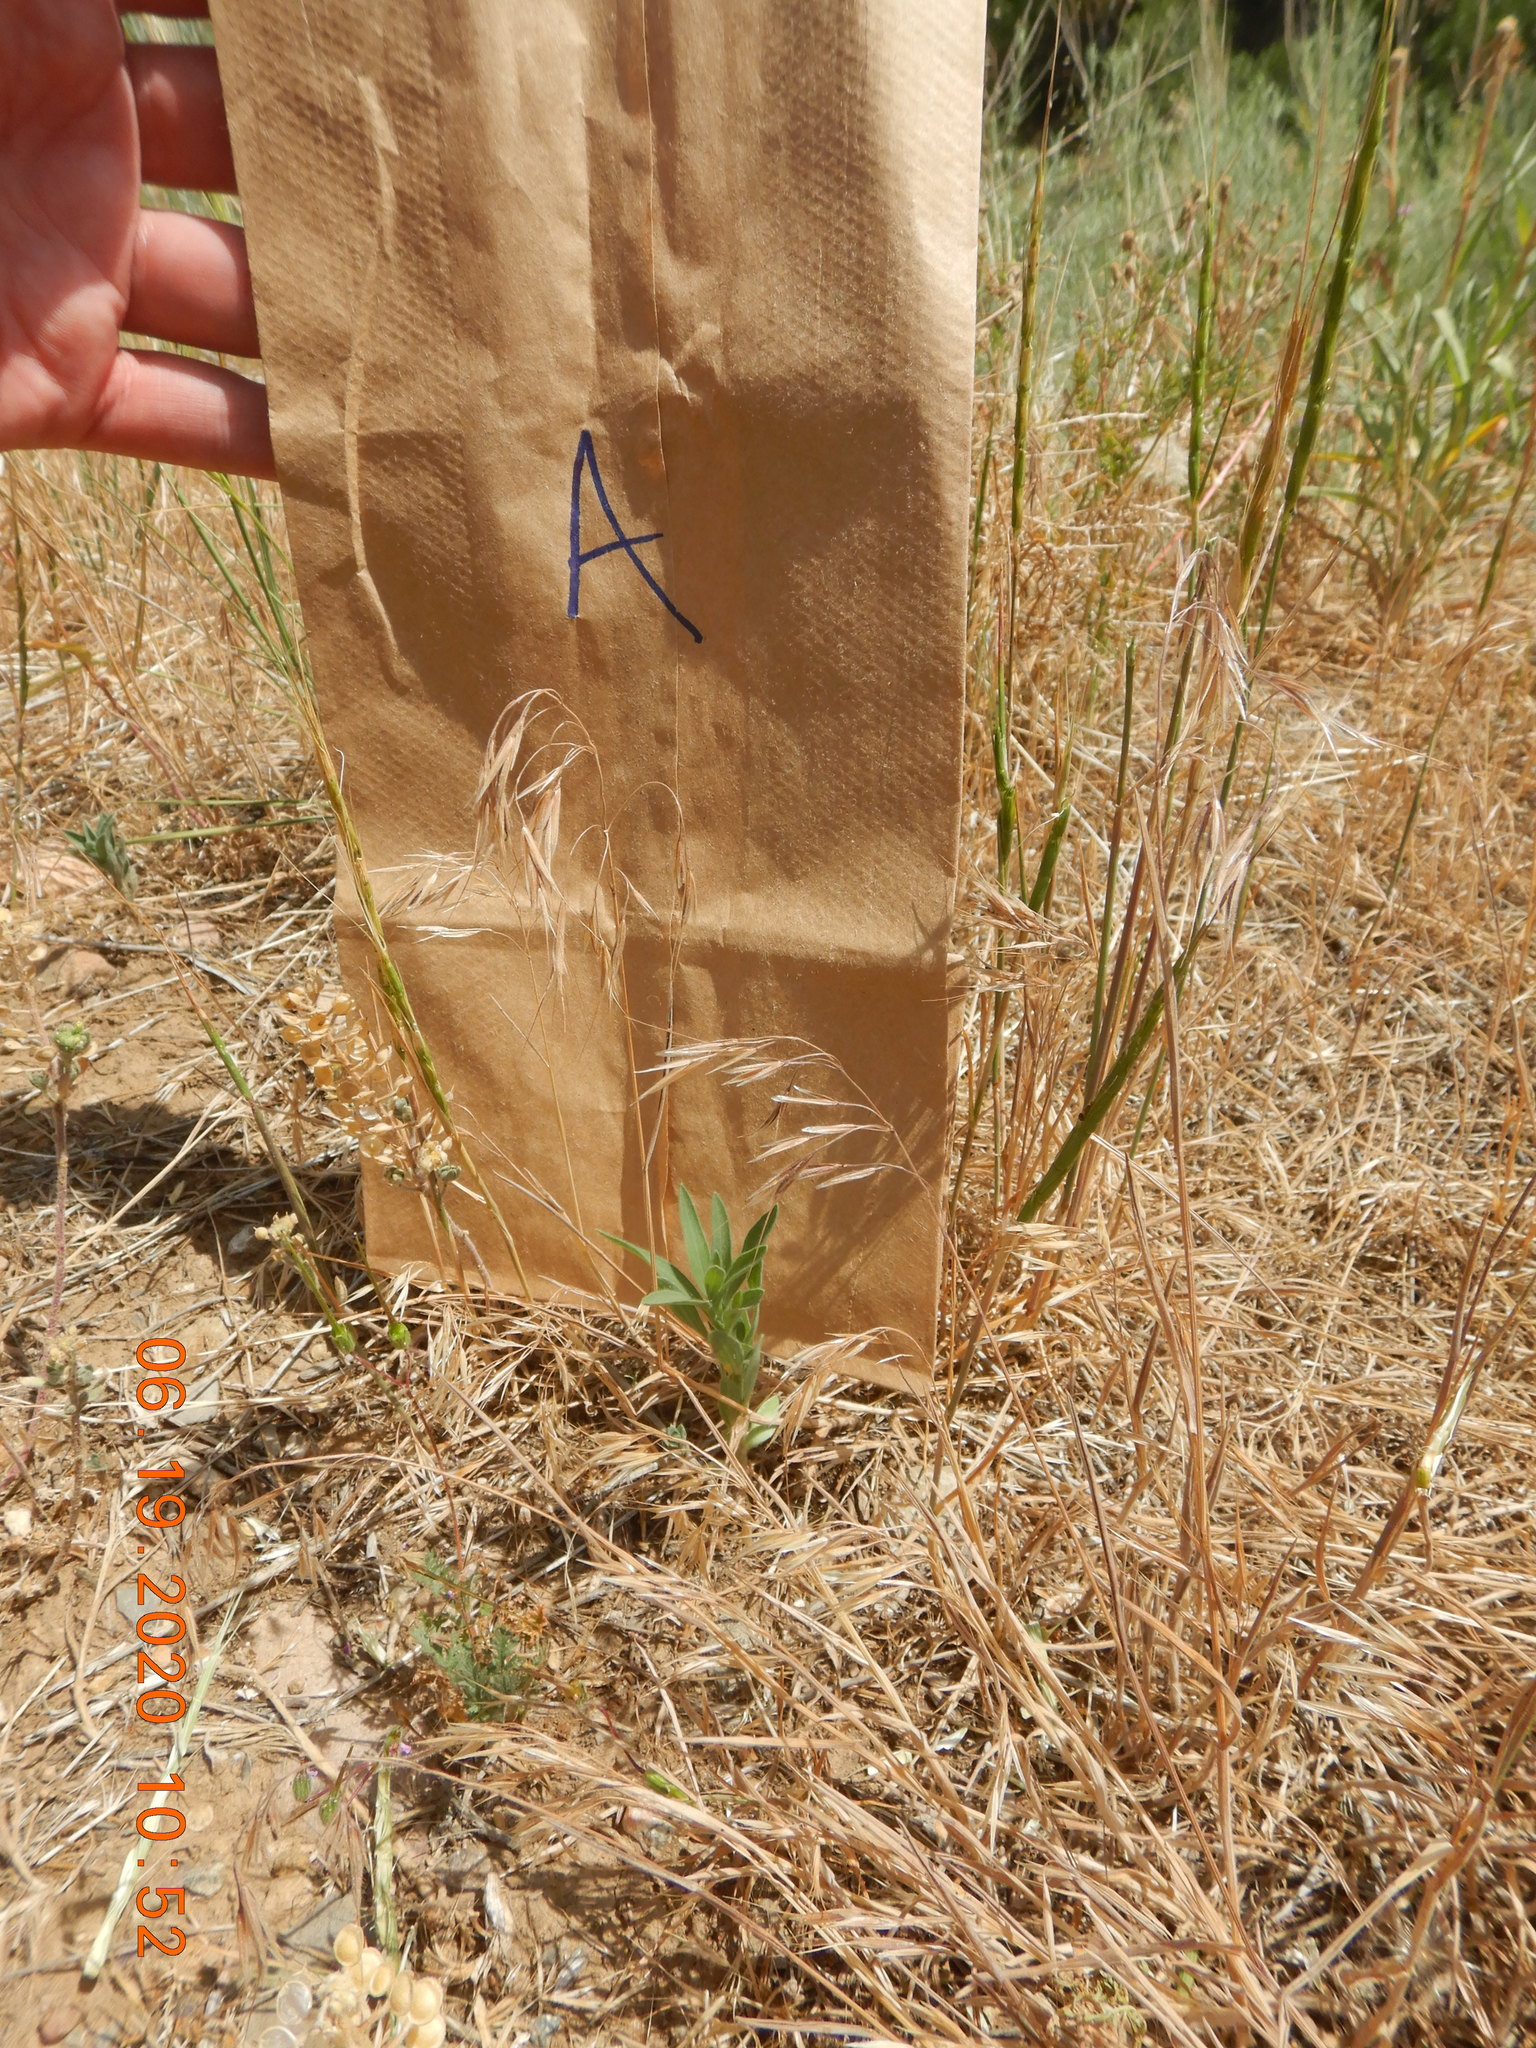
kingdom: Plantae
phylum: Tracheophyta
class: Liliopsida
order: Poales
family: Poaceae
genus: Bromus
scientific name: Bromus tectorum
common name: Cheatgrass
